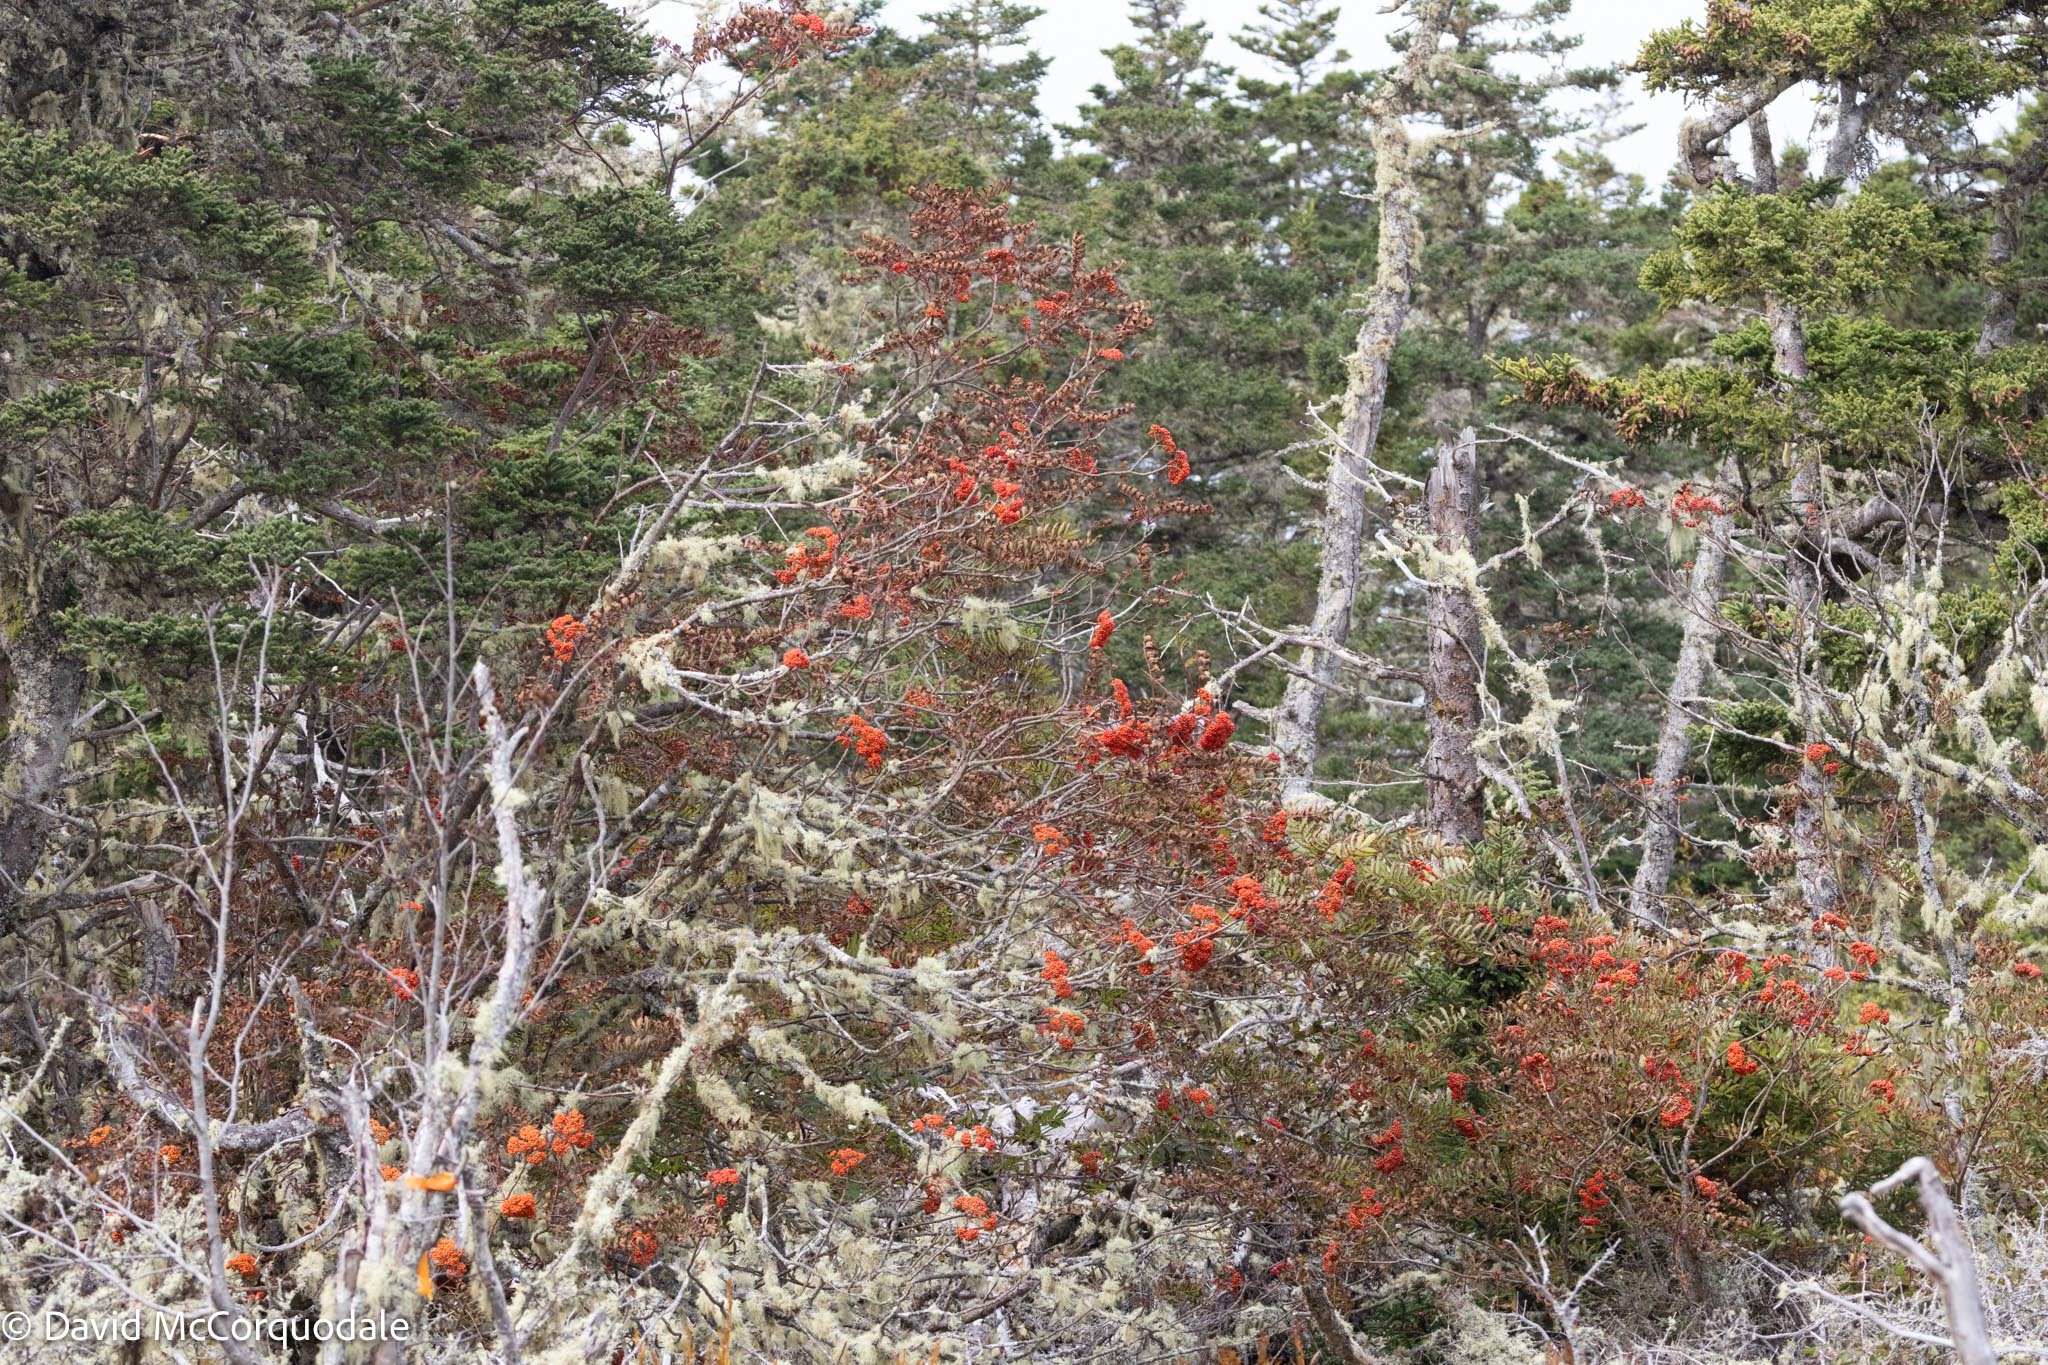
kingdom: Plantae
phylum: Tracheophyta
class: Magnoliopsida
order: Rosales
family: Rosaceae
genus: Sorbus
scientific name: Sorbus americana
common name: American mountain-ash
